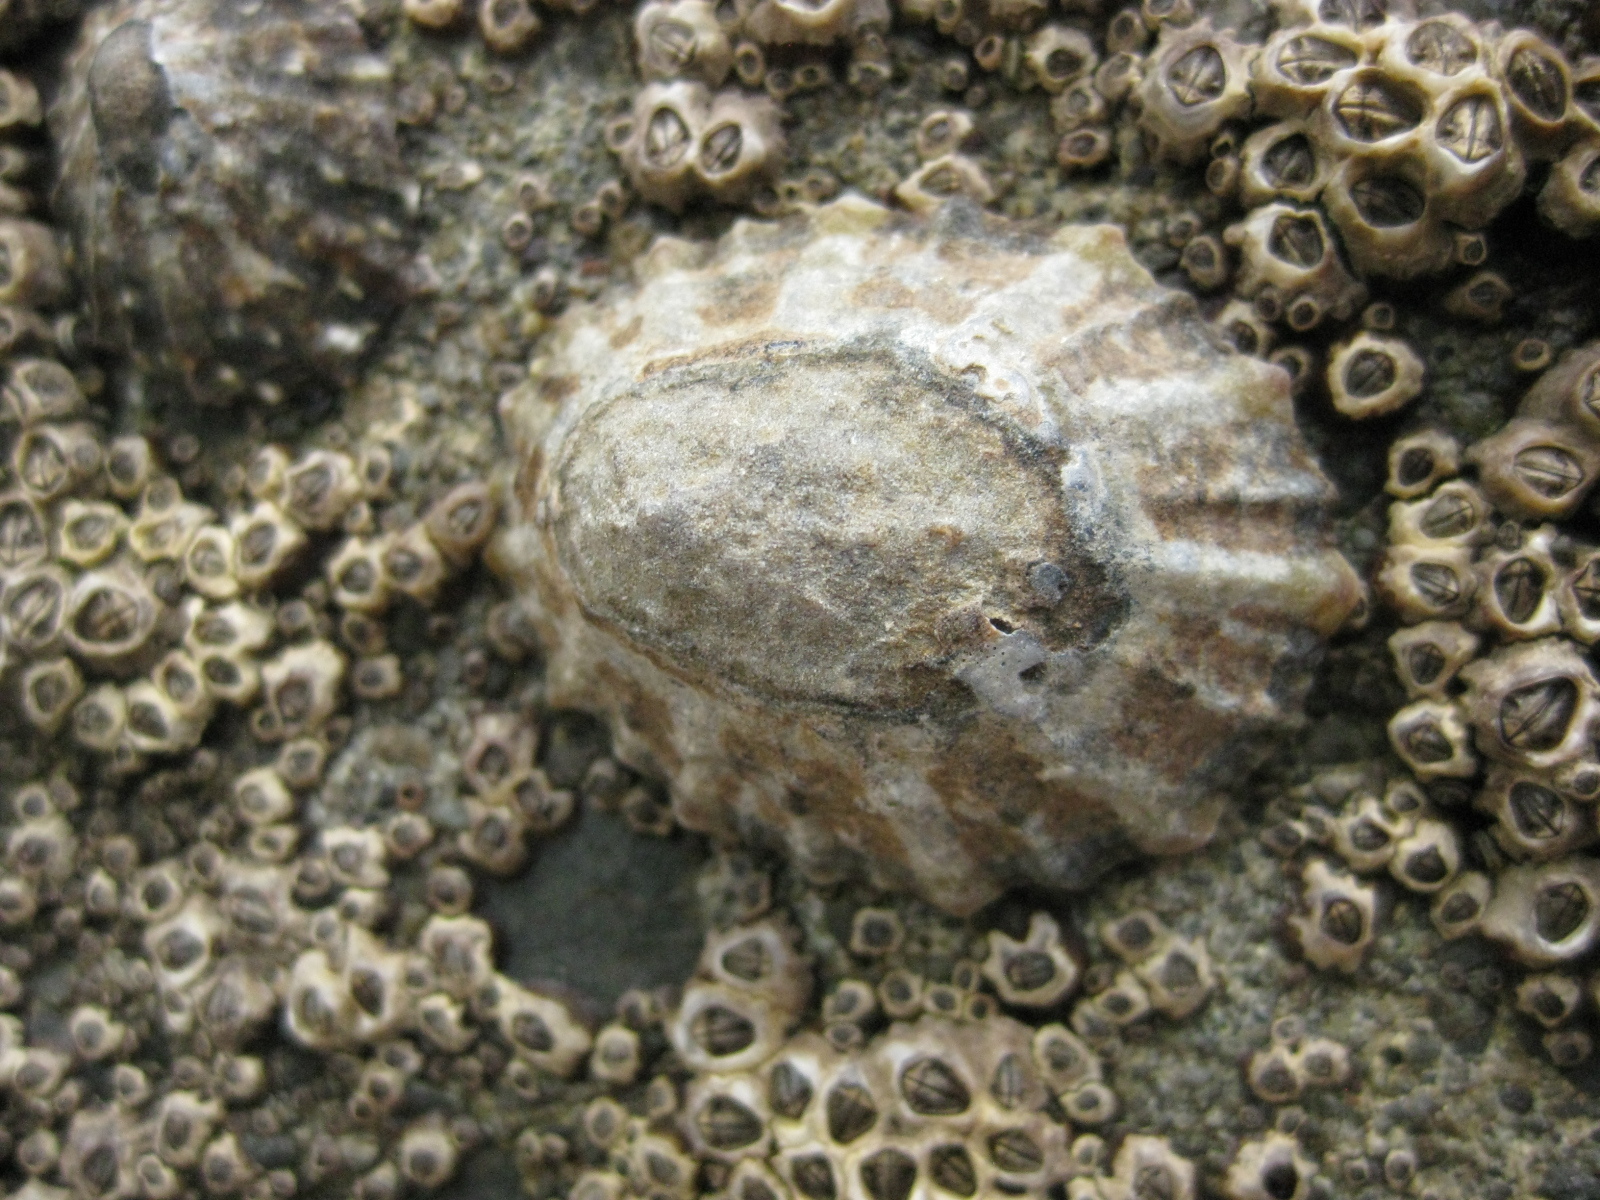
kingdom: Animalia
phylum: Mollusca
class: Gastropoda
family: Nacellidae
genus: Cellana
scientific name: Cellana ornata
